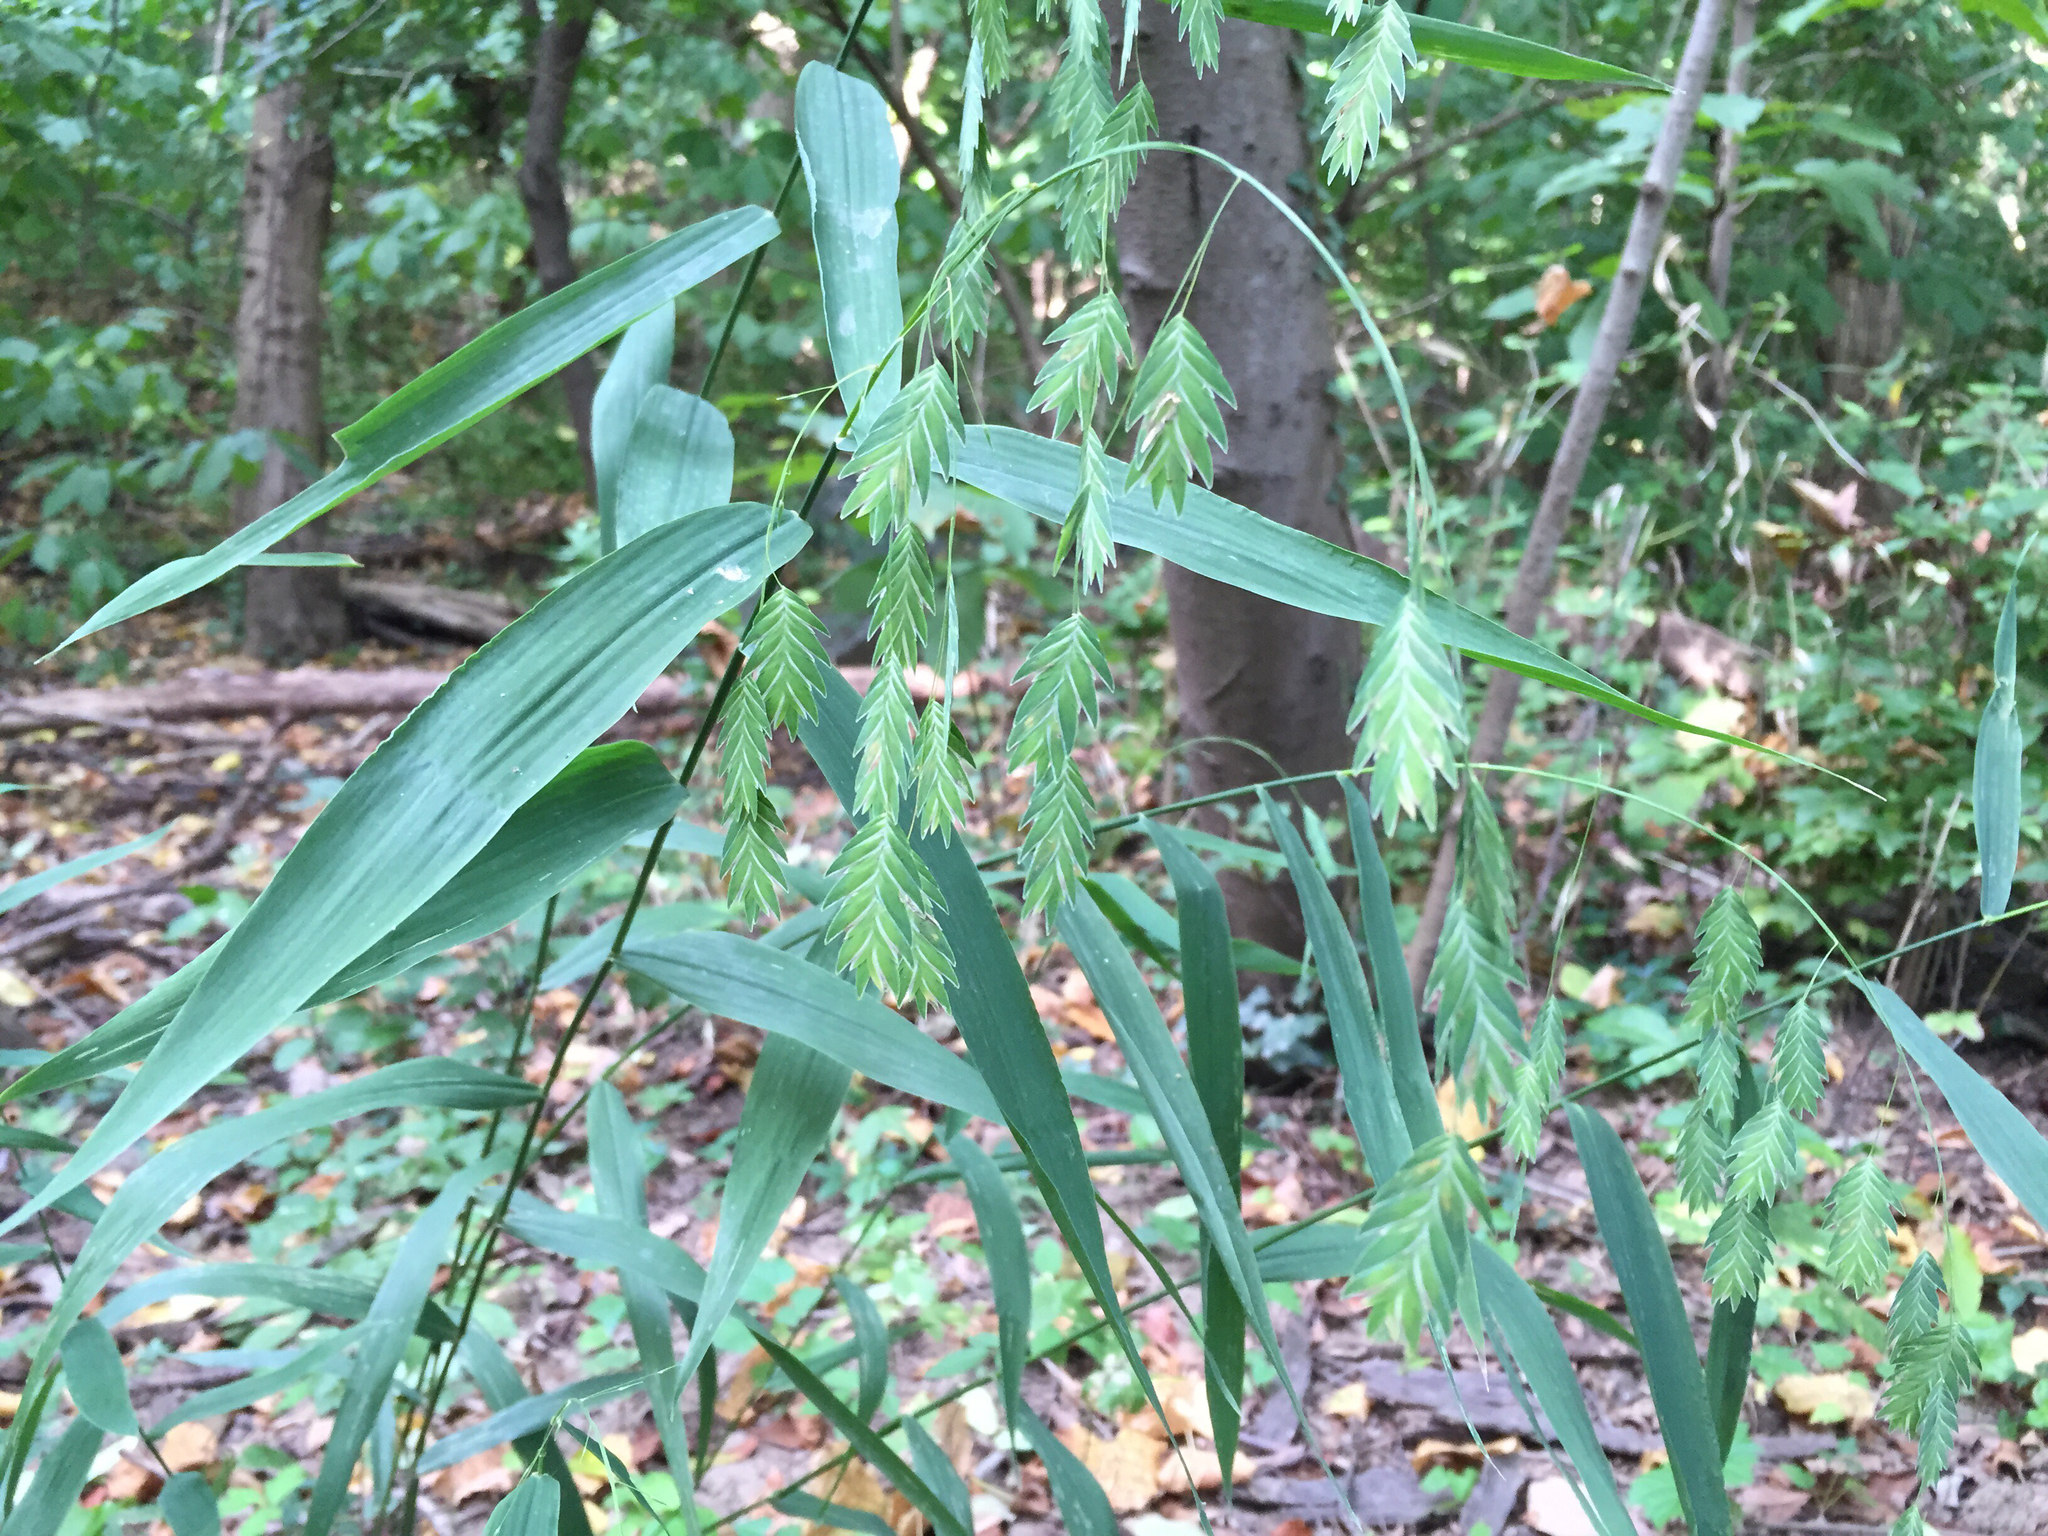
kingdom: Plantae
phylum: Tracheophyta
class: Liliopsida
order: Poales
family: Poaceae
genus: Chasmanthium
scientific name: Chasmanthium latifolium
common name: Broad-leaved chasmanthium
